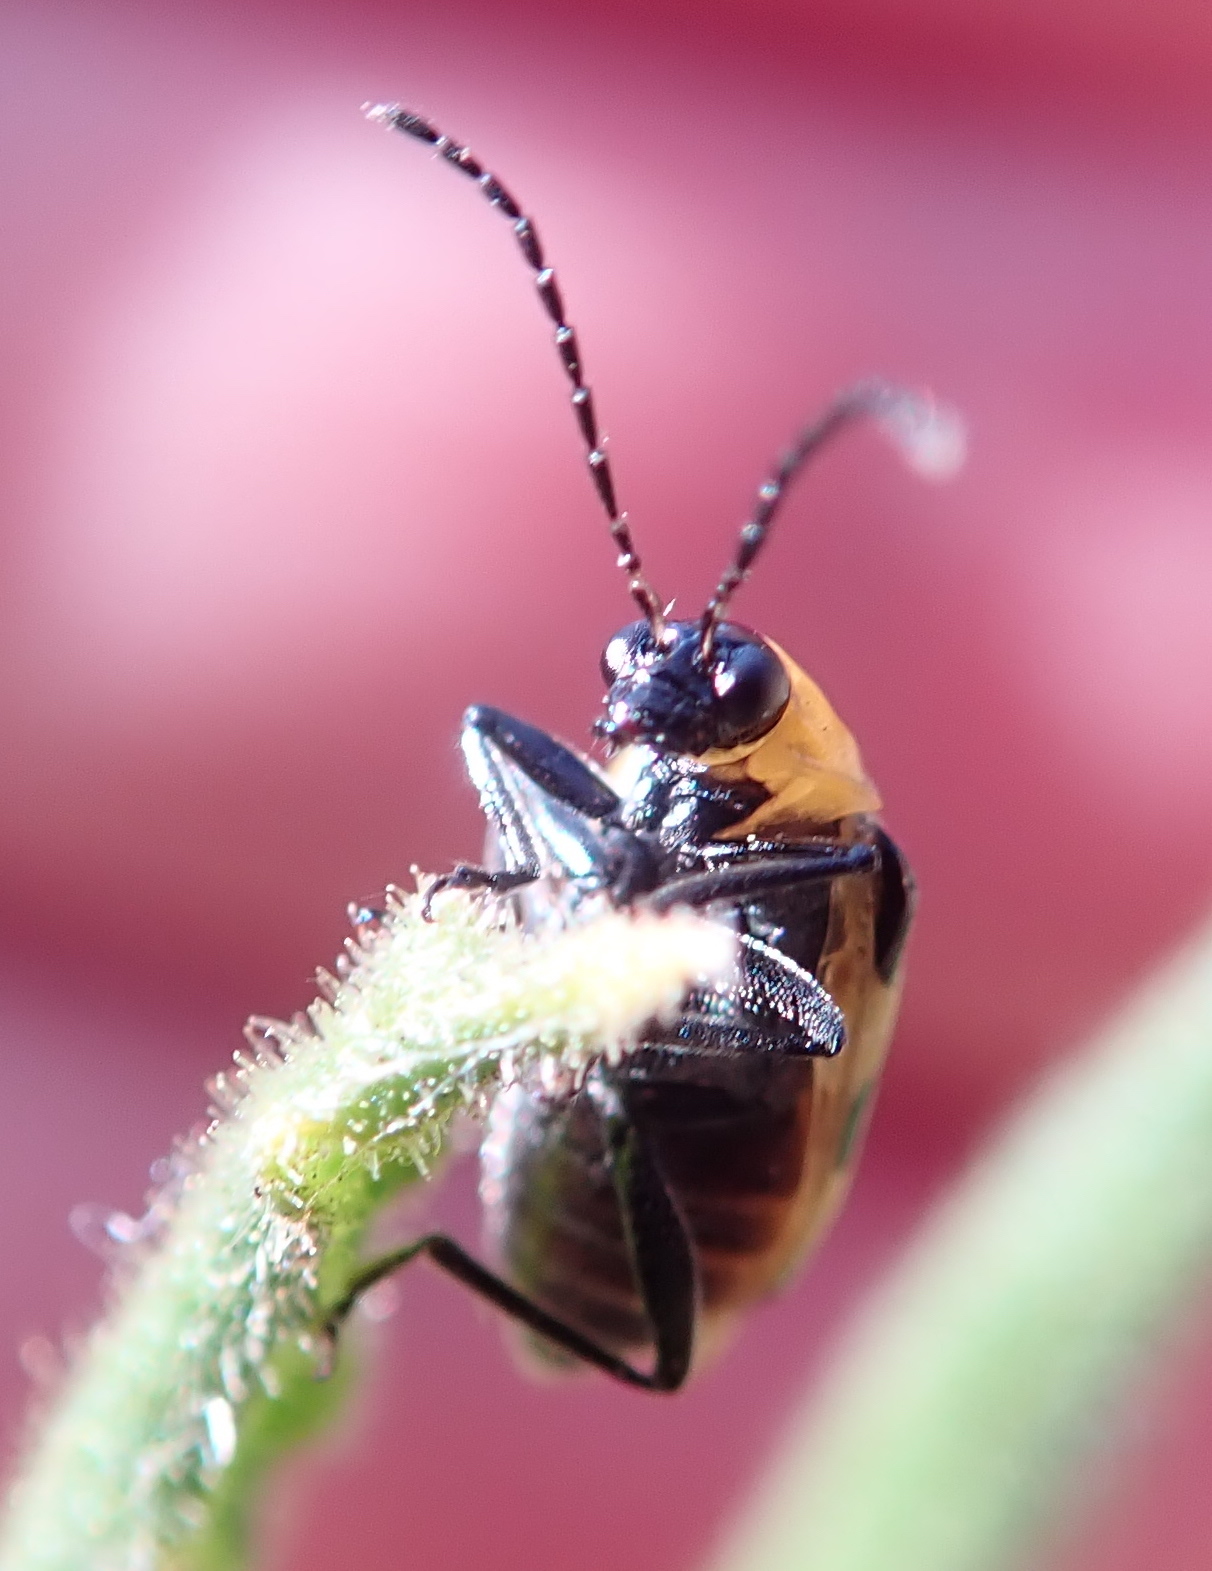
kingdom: Animalia
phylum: Arthropoda
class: Insecta
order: Coleoptera
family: Chrysomelidae
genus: Diabrotica
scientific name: Diabrotica undecimpunctata
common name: Spotted cucumber beetle
